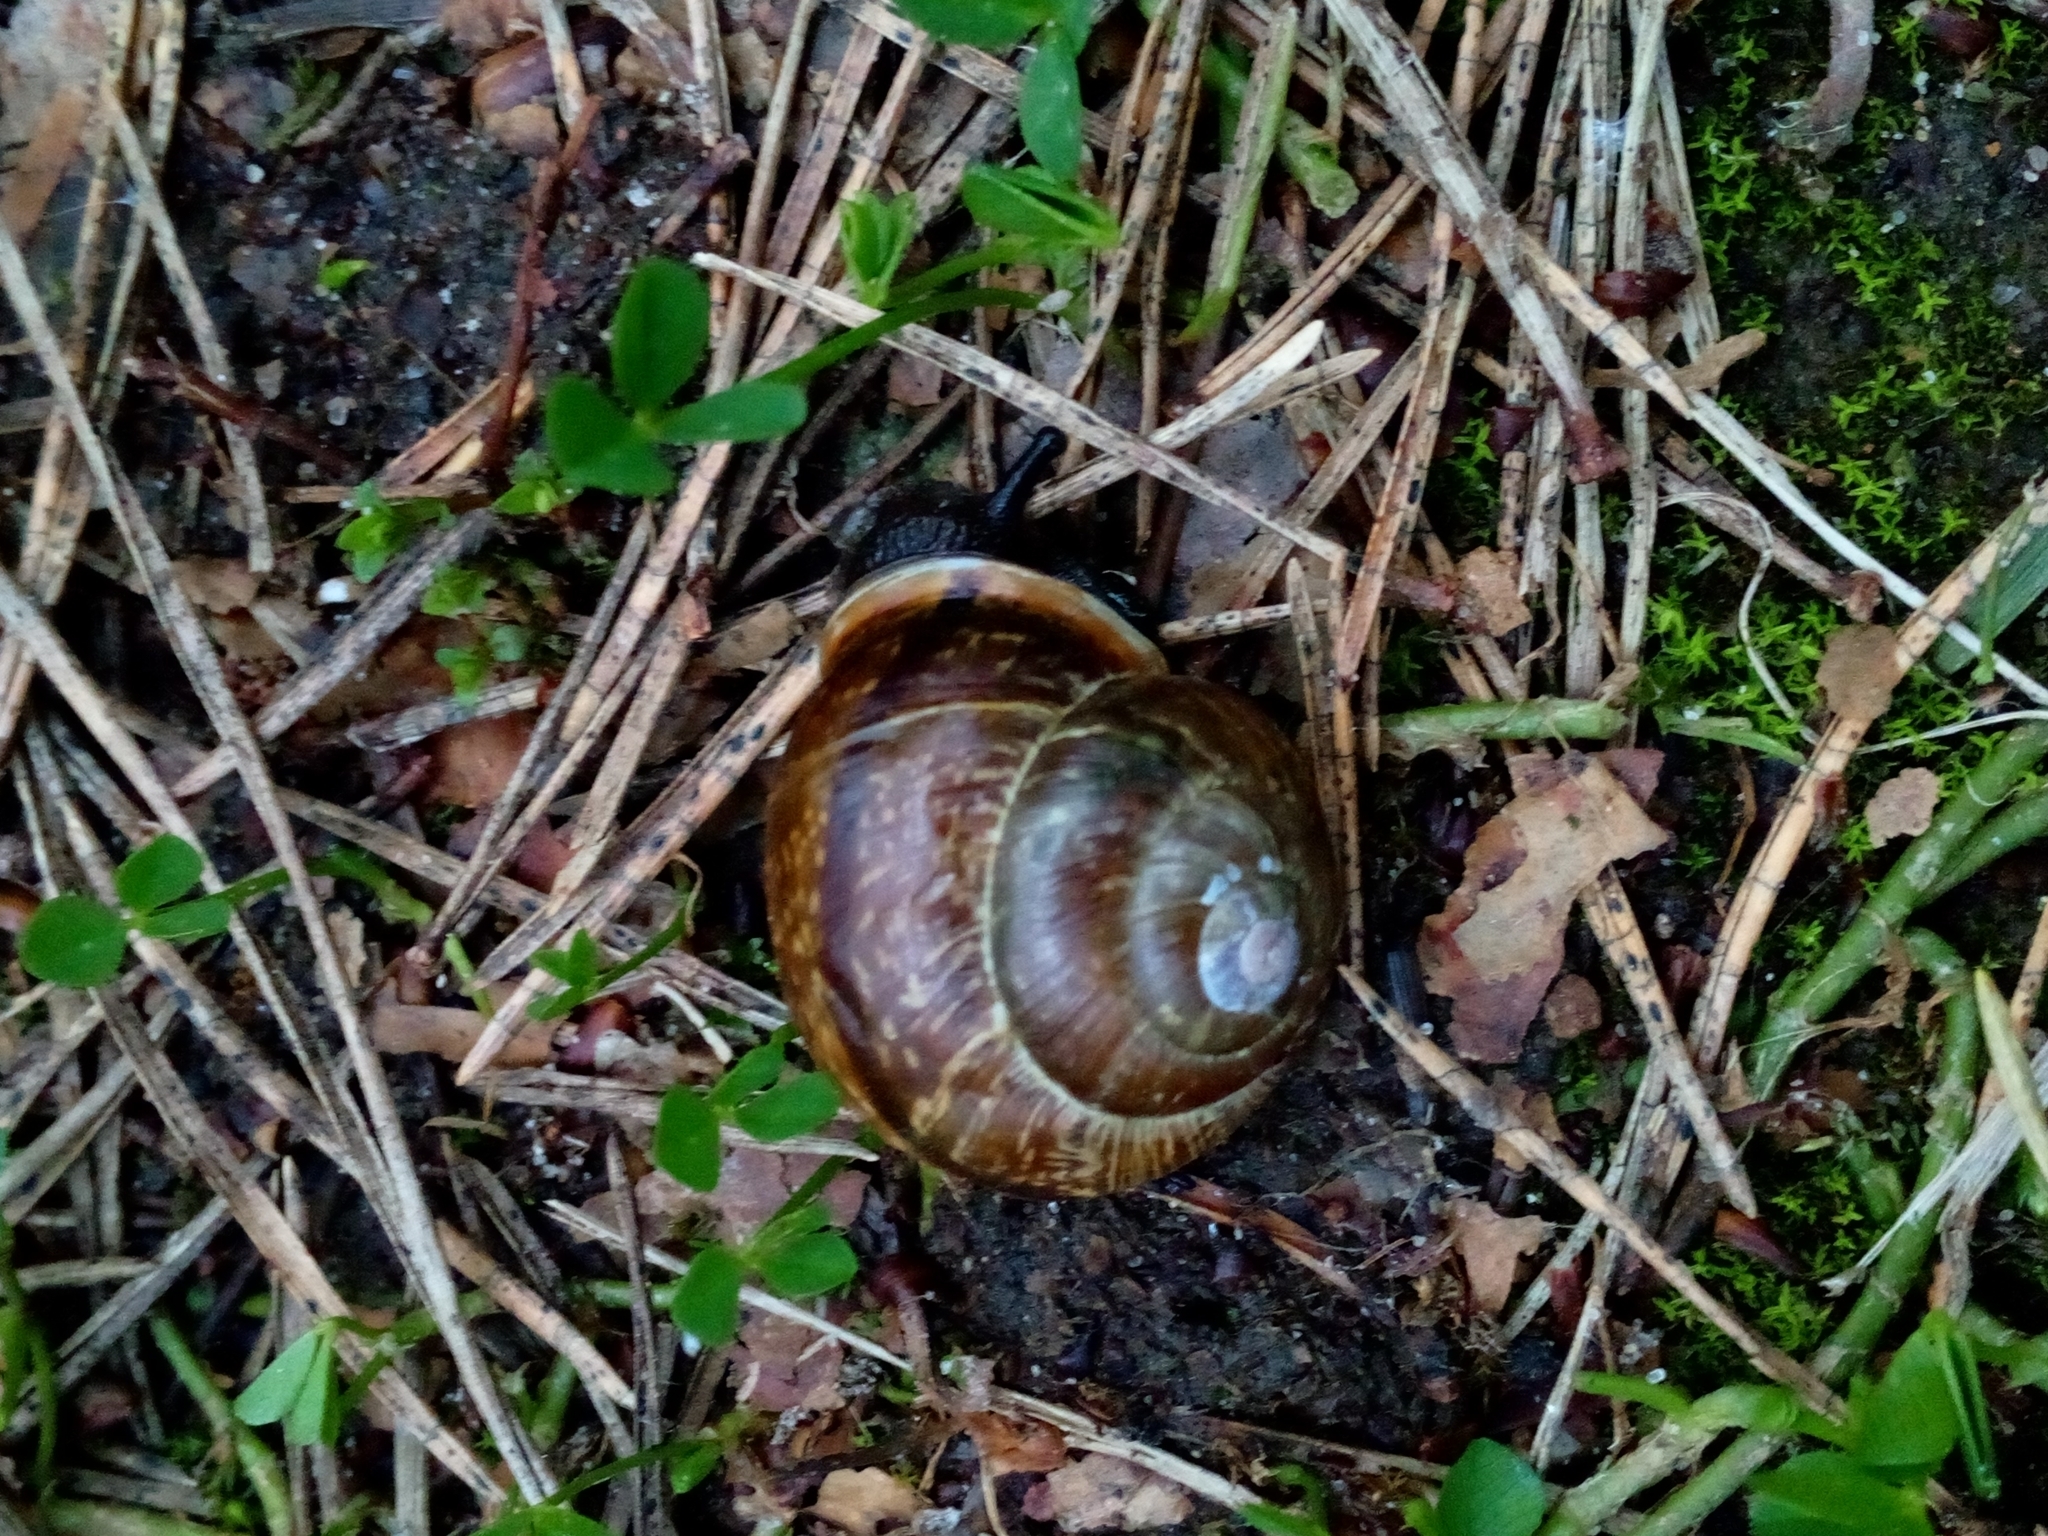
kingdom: Animalia
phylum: Mollusca
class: Gastropoda
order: Stylommatophora
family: Helicidae
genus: Arianta
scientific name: Arianta arbustorum
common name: Copse snail
